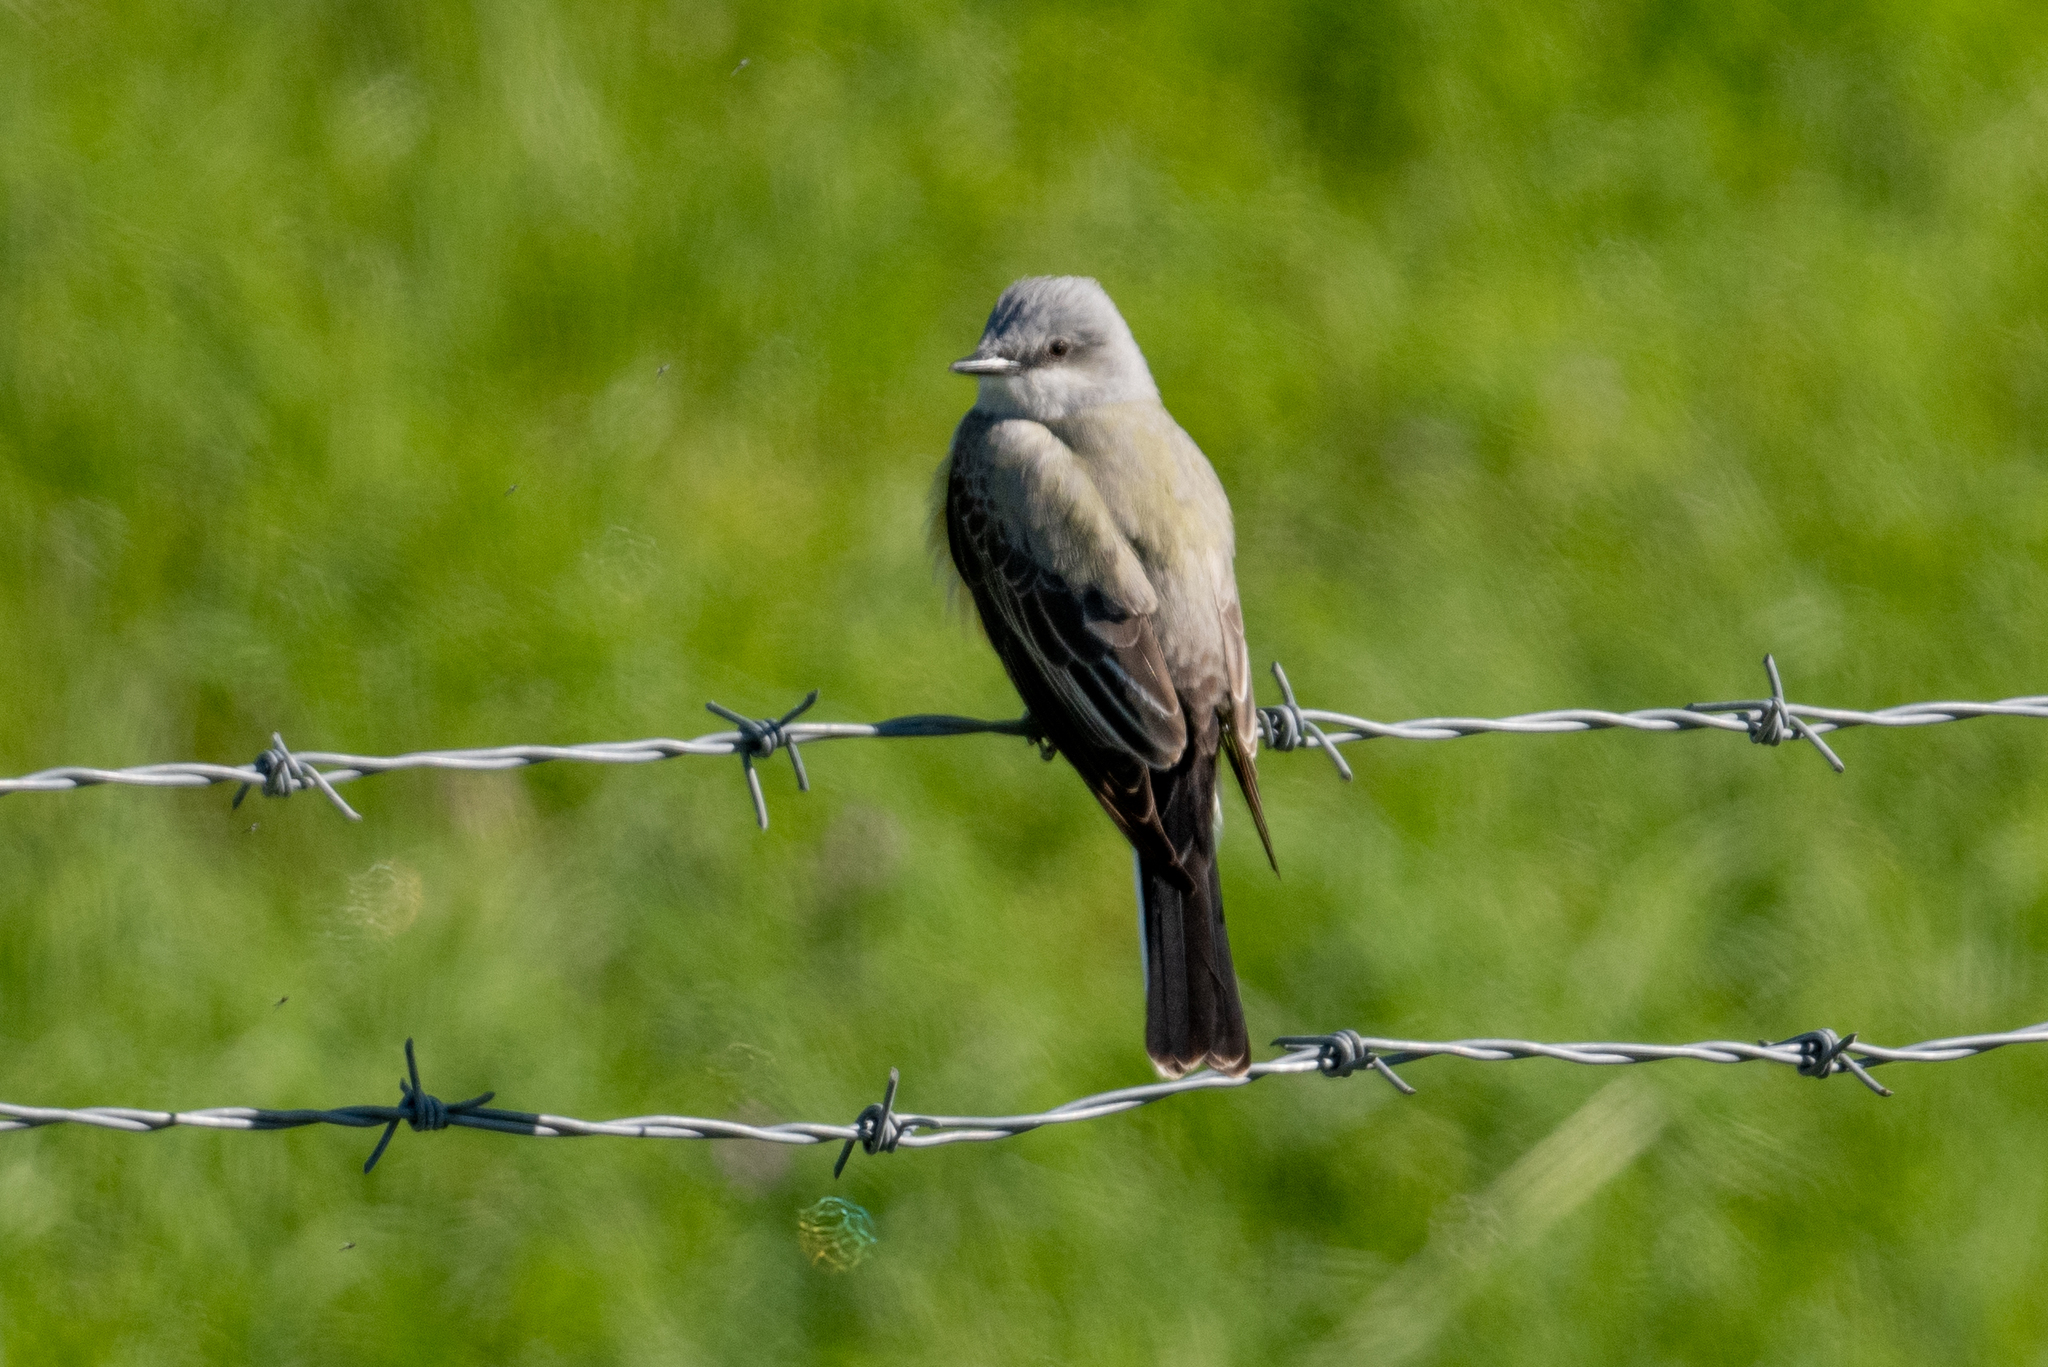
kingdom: Animalia
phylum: Chordata
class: Aves
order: Passeriformes
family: Tyrannidae
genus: Tyrannus
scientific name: Tyrannus verticalis
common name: Western kingbird
